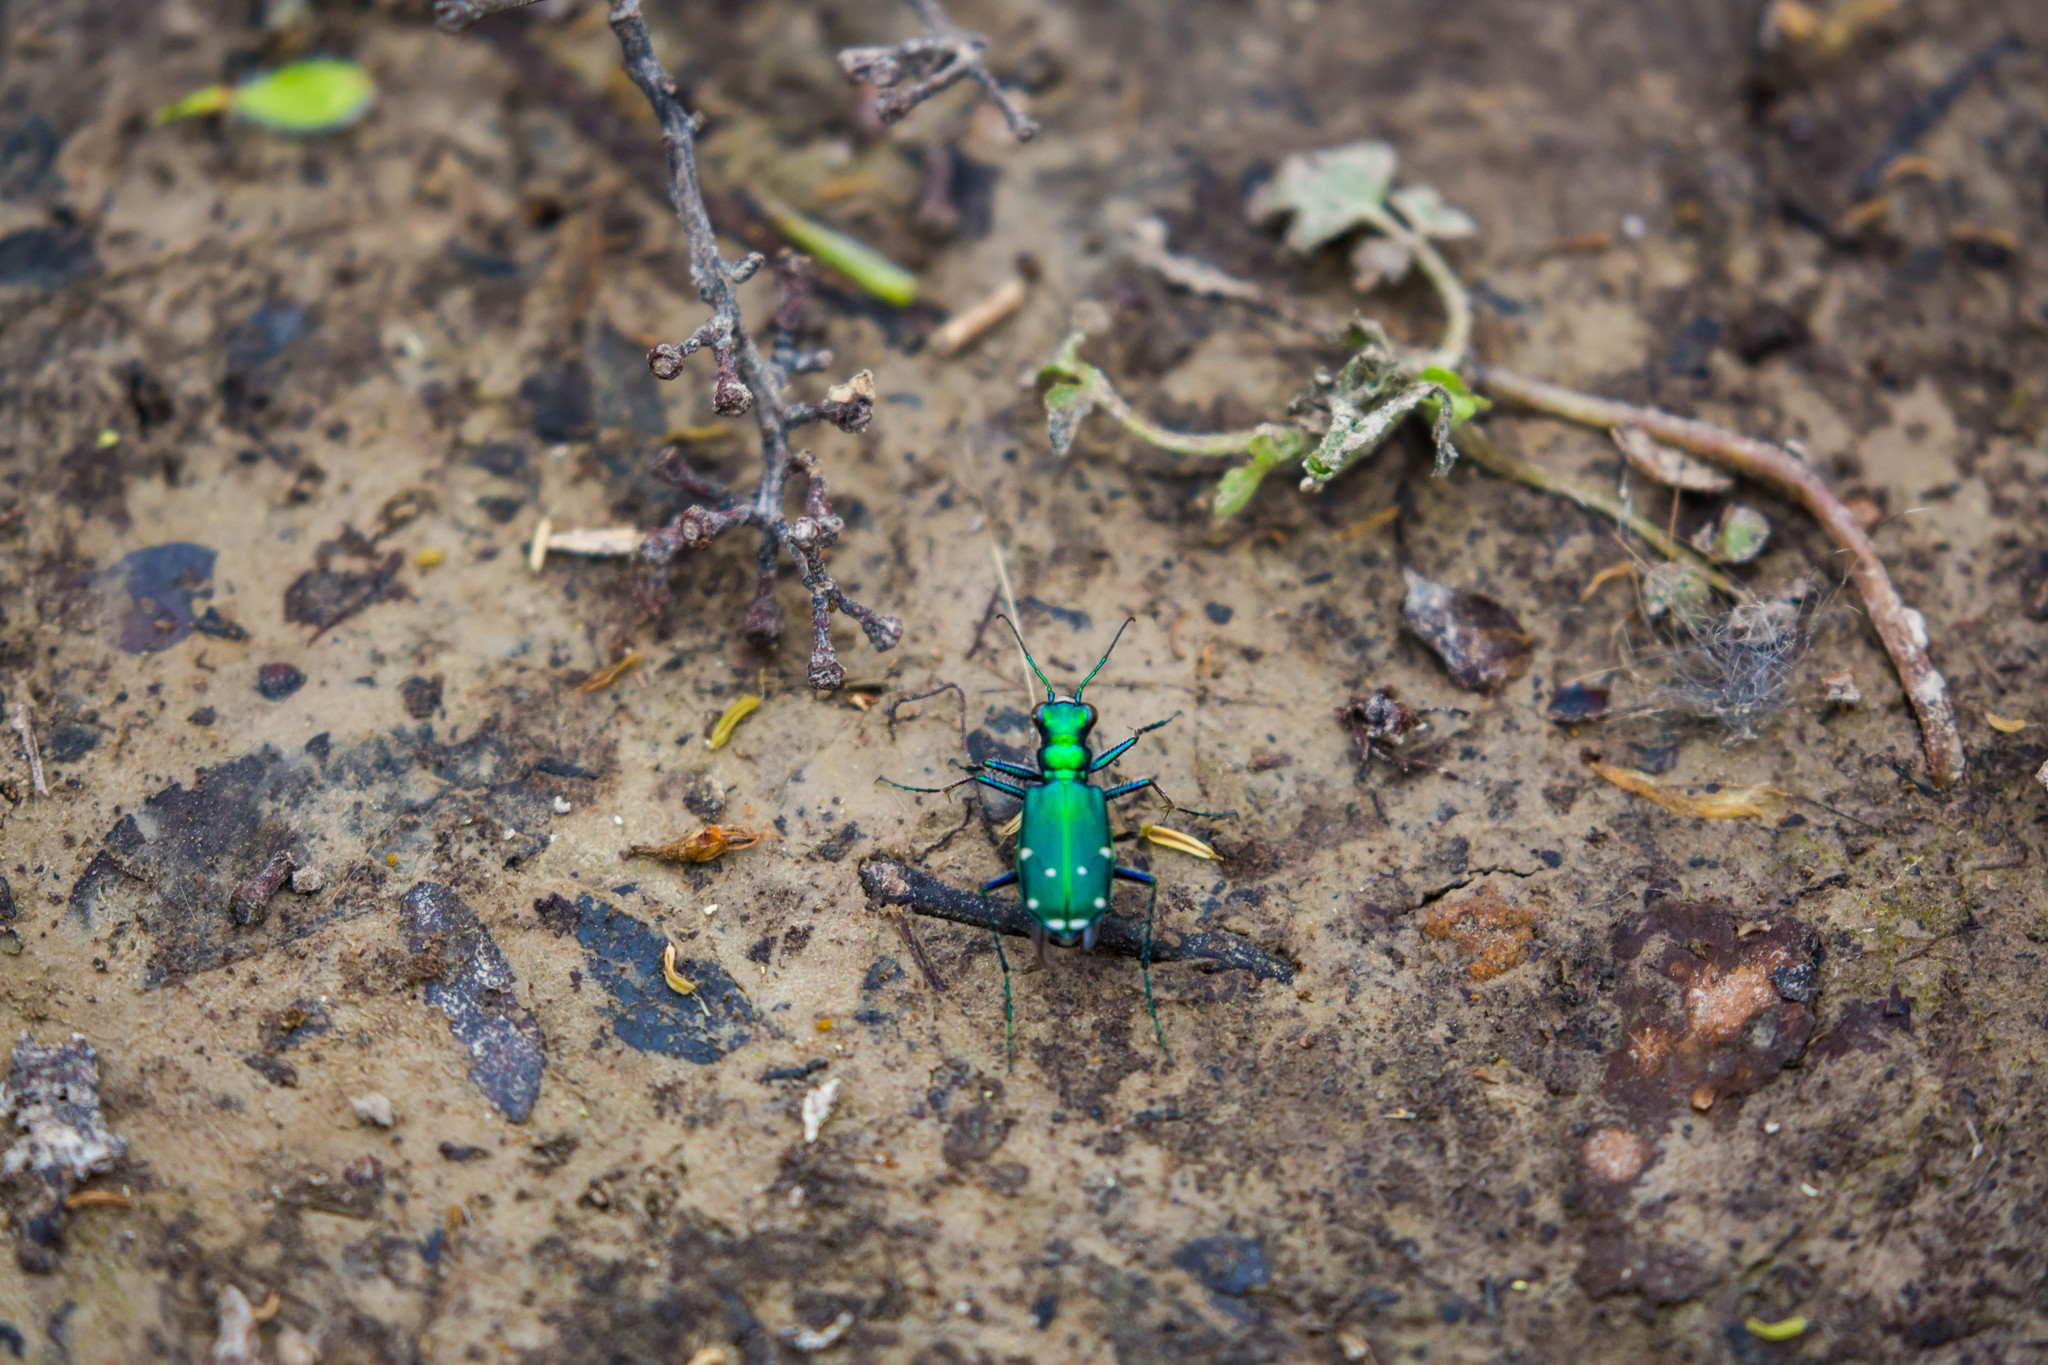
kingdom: Animalia
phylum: Arthropoda
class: Insecta
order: Coleoptera
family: Carabidae
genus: Cicindela
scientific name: Cicindela sexguttata
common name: Six-spotted tiger beetle
